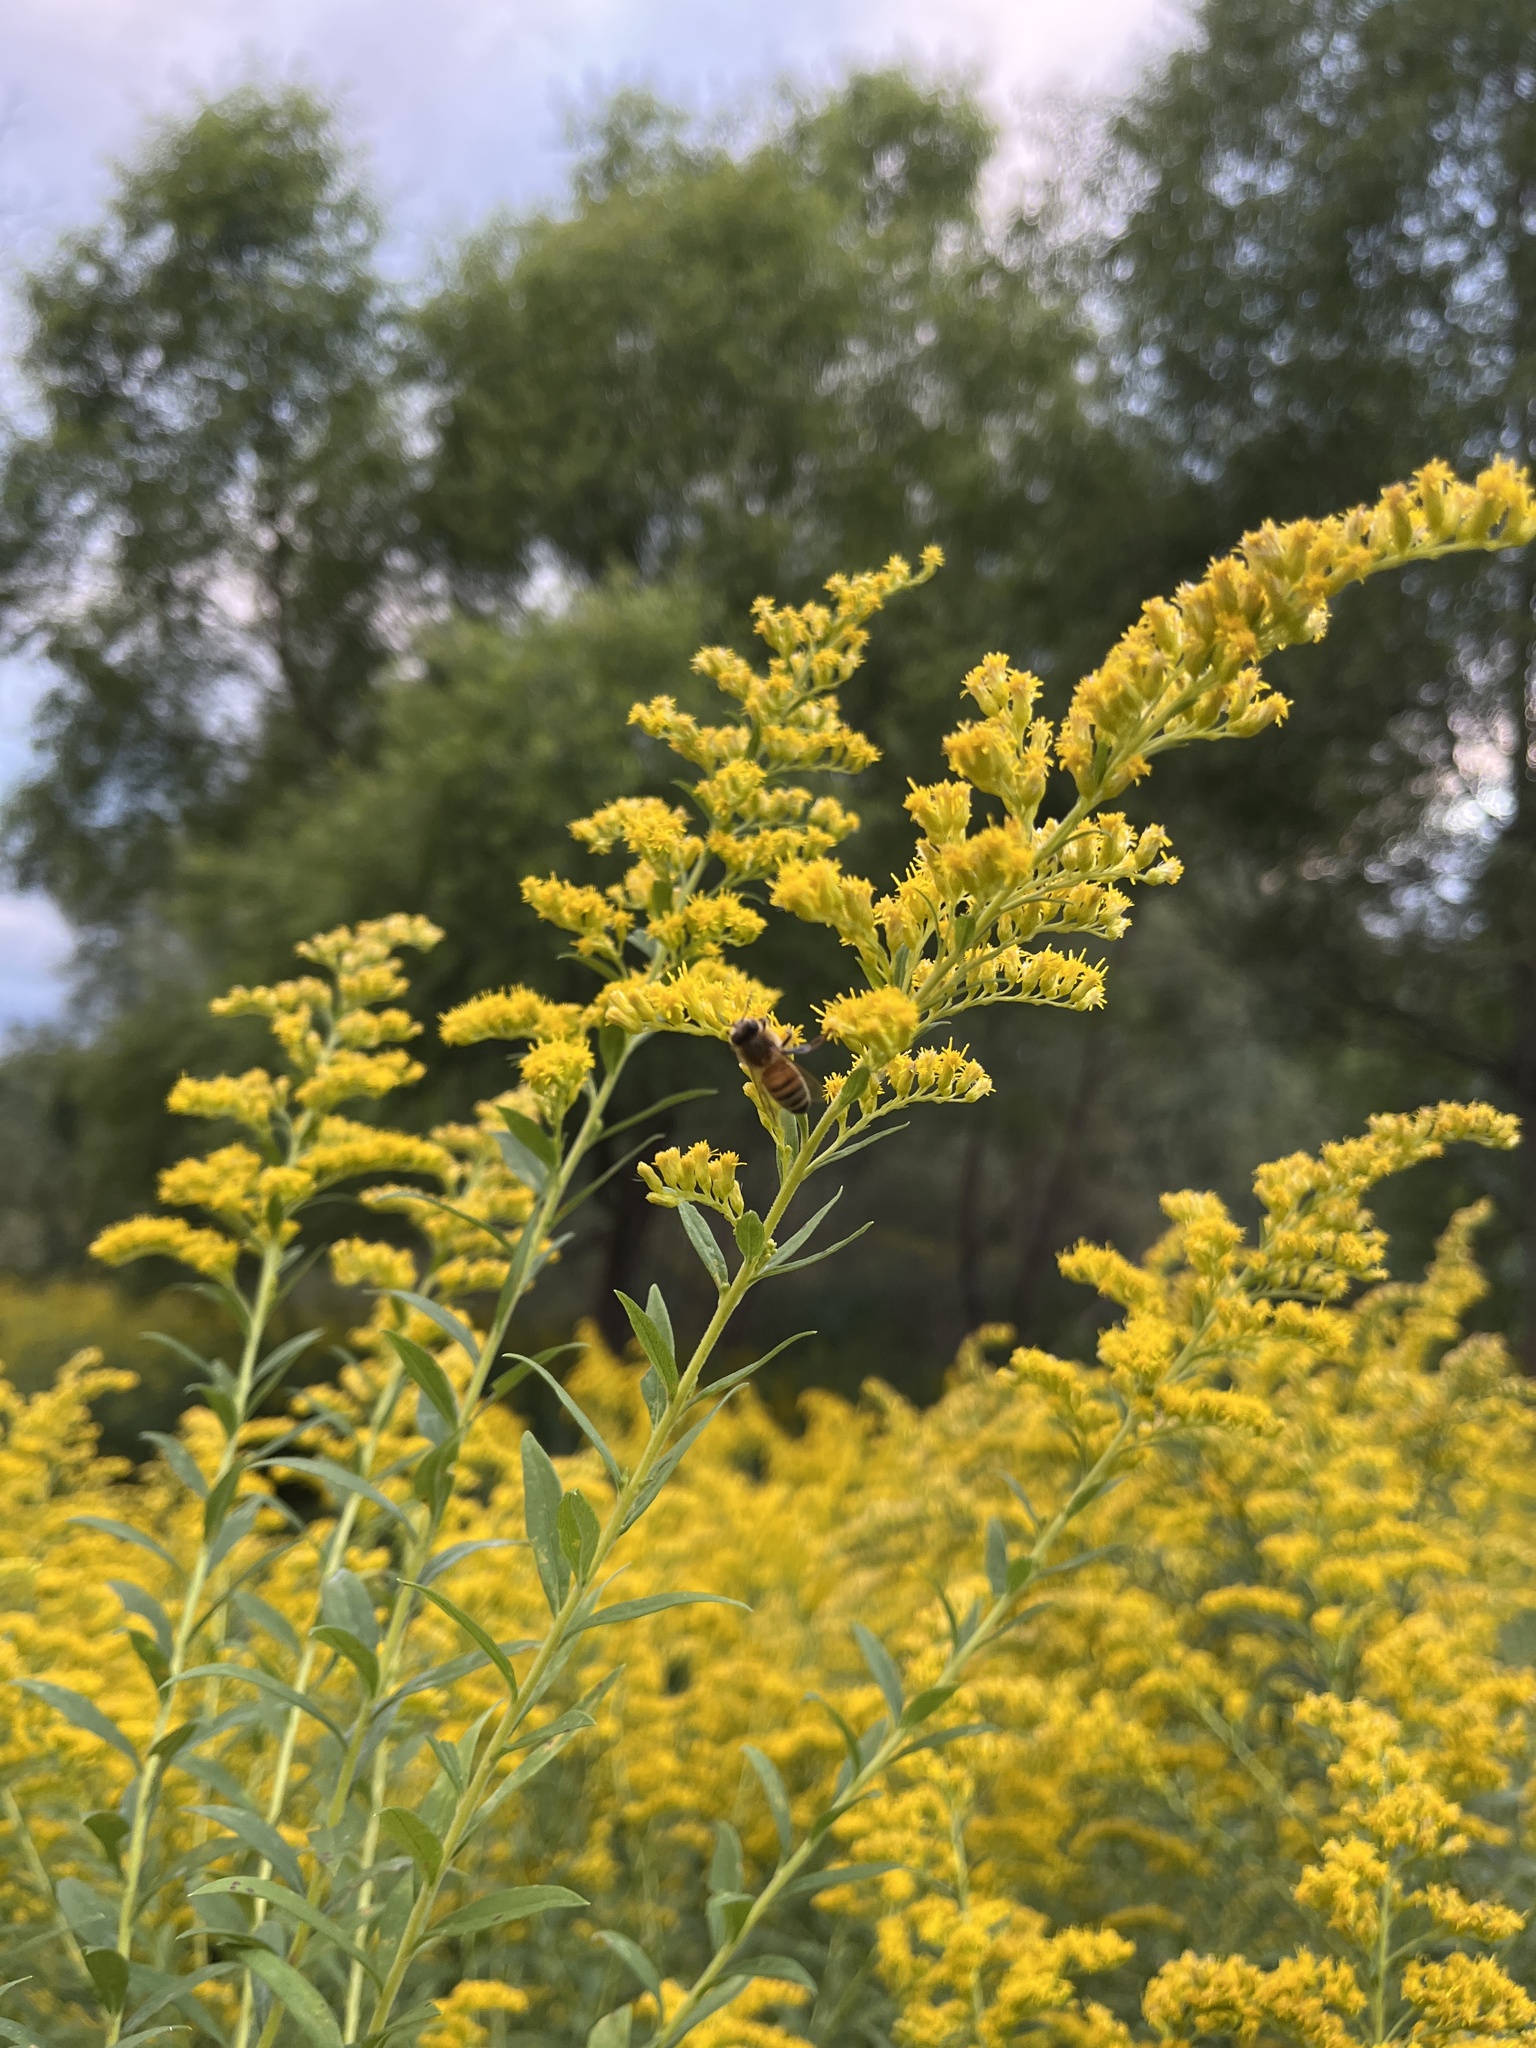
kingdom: Animalia
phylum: Arthropoda
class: Insecta
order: Hymenoptera
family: Apidae
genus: Apis
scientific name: Apis mellifera
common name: Honey bee
